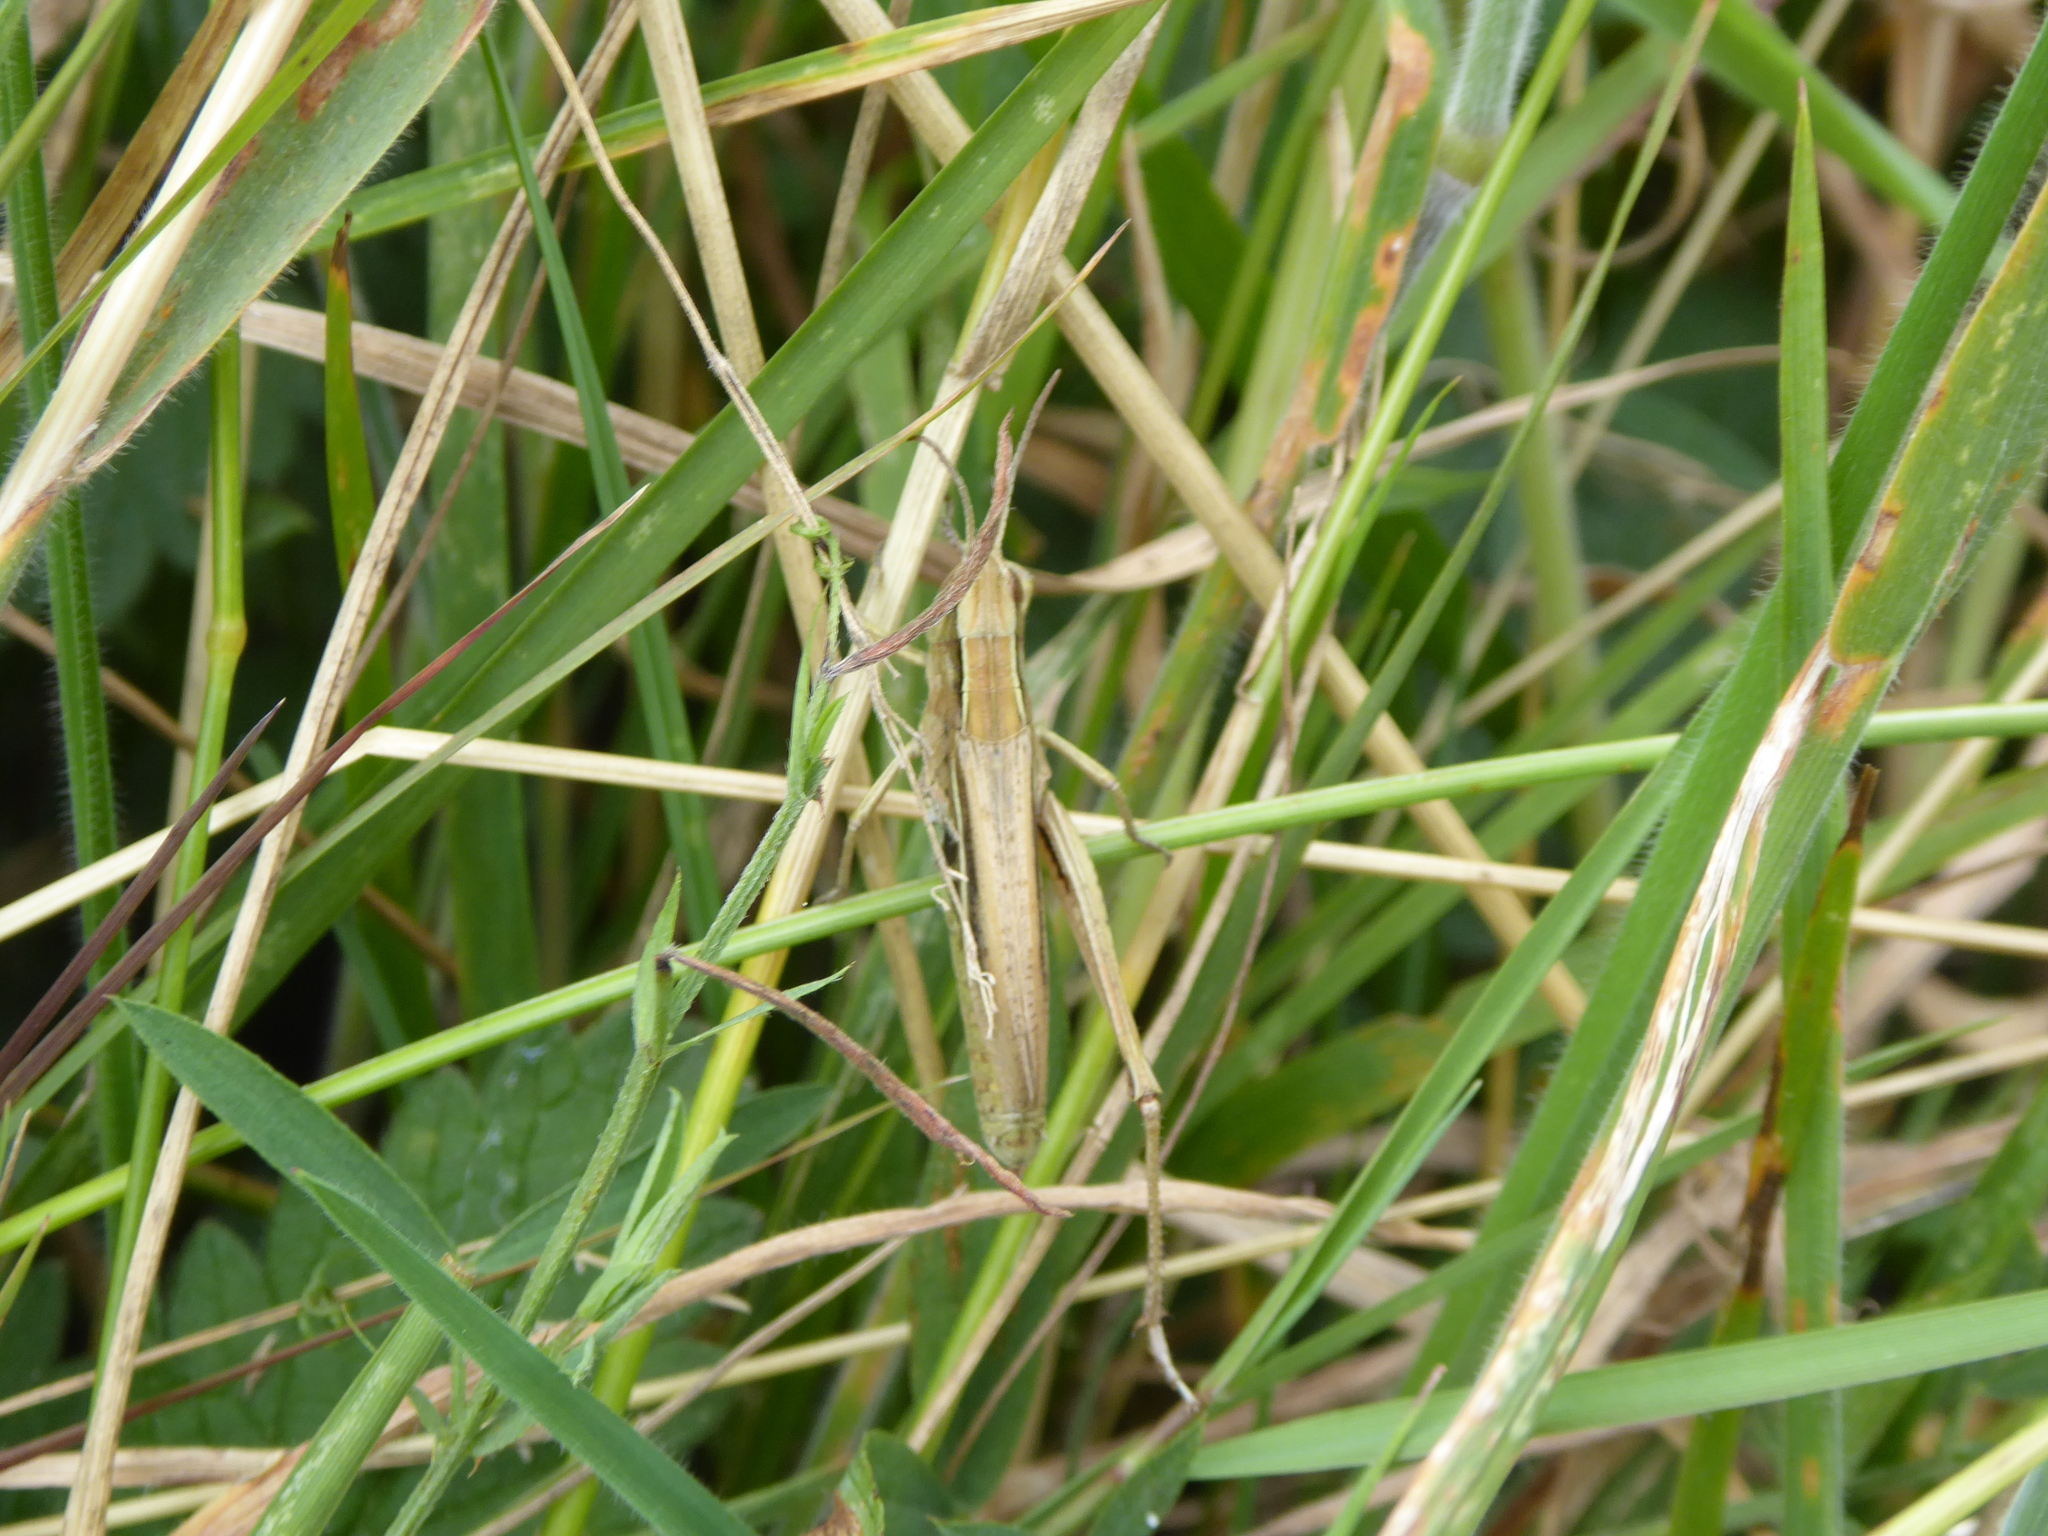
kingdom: Animalia
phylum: Arthropoda
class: Insecta
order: Orthoptera
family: Acrididae
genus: Chorthippus
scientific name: Chorthippus albomarginatus
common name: Lesser marsh grasshopper
